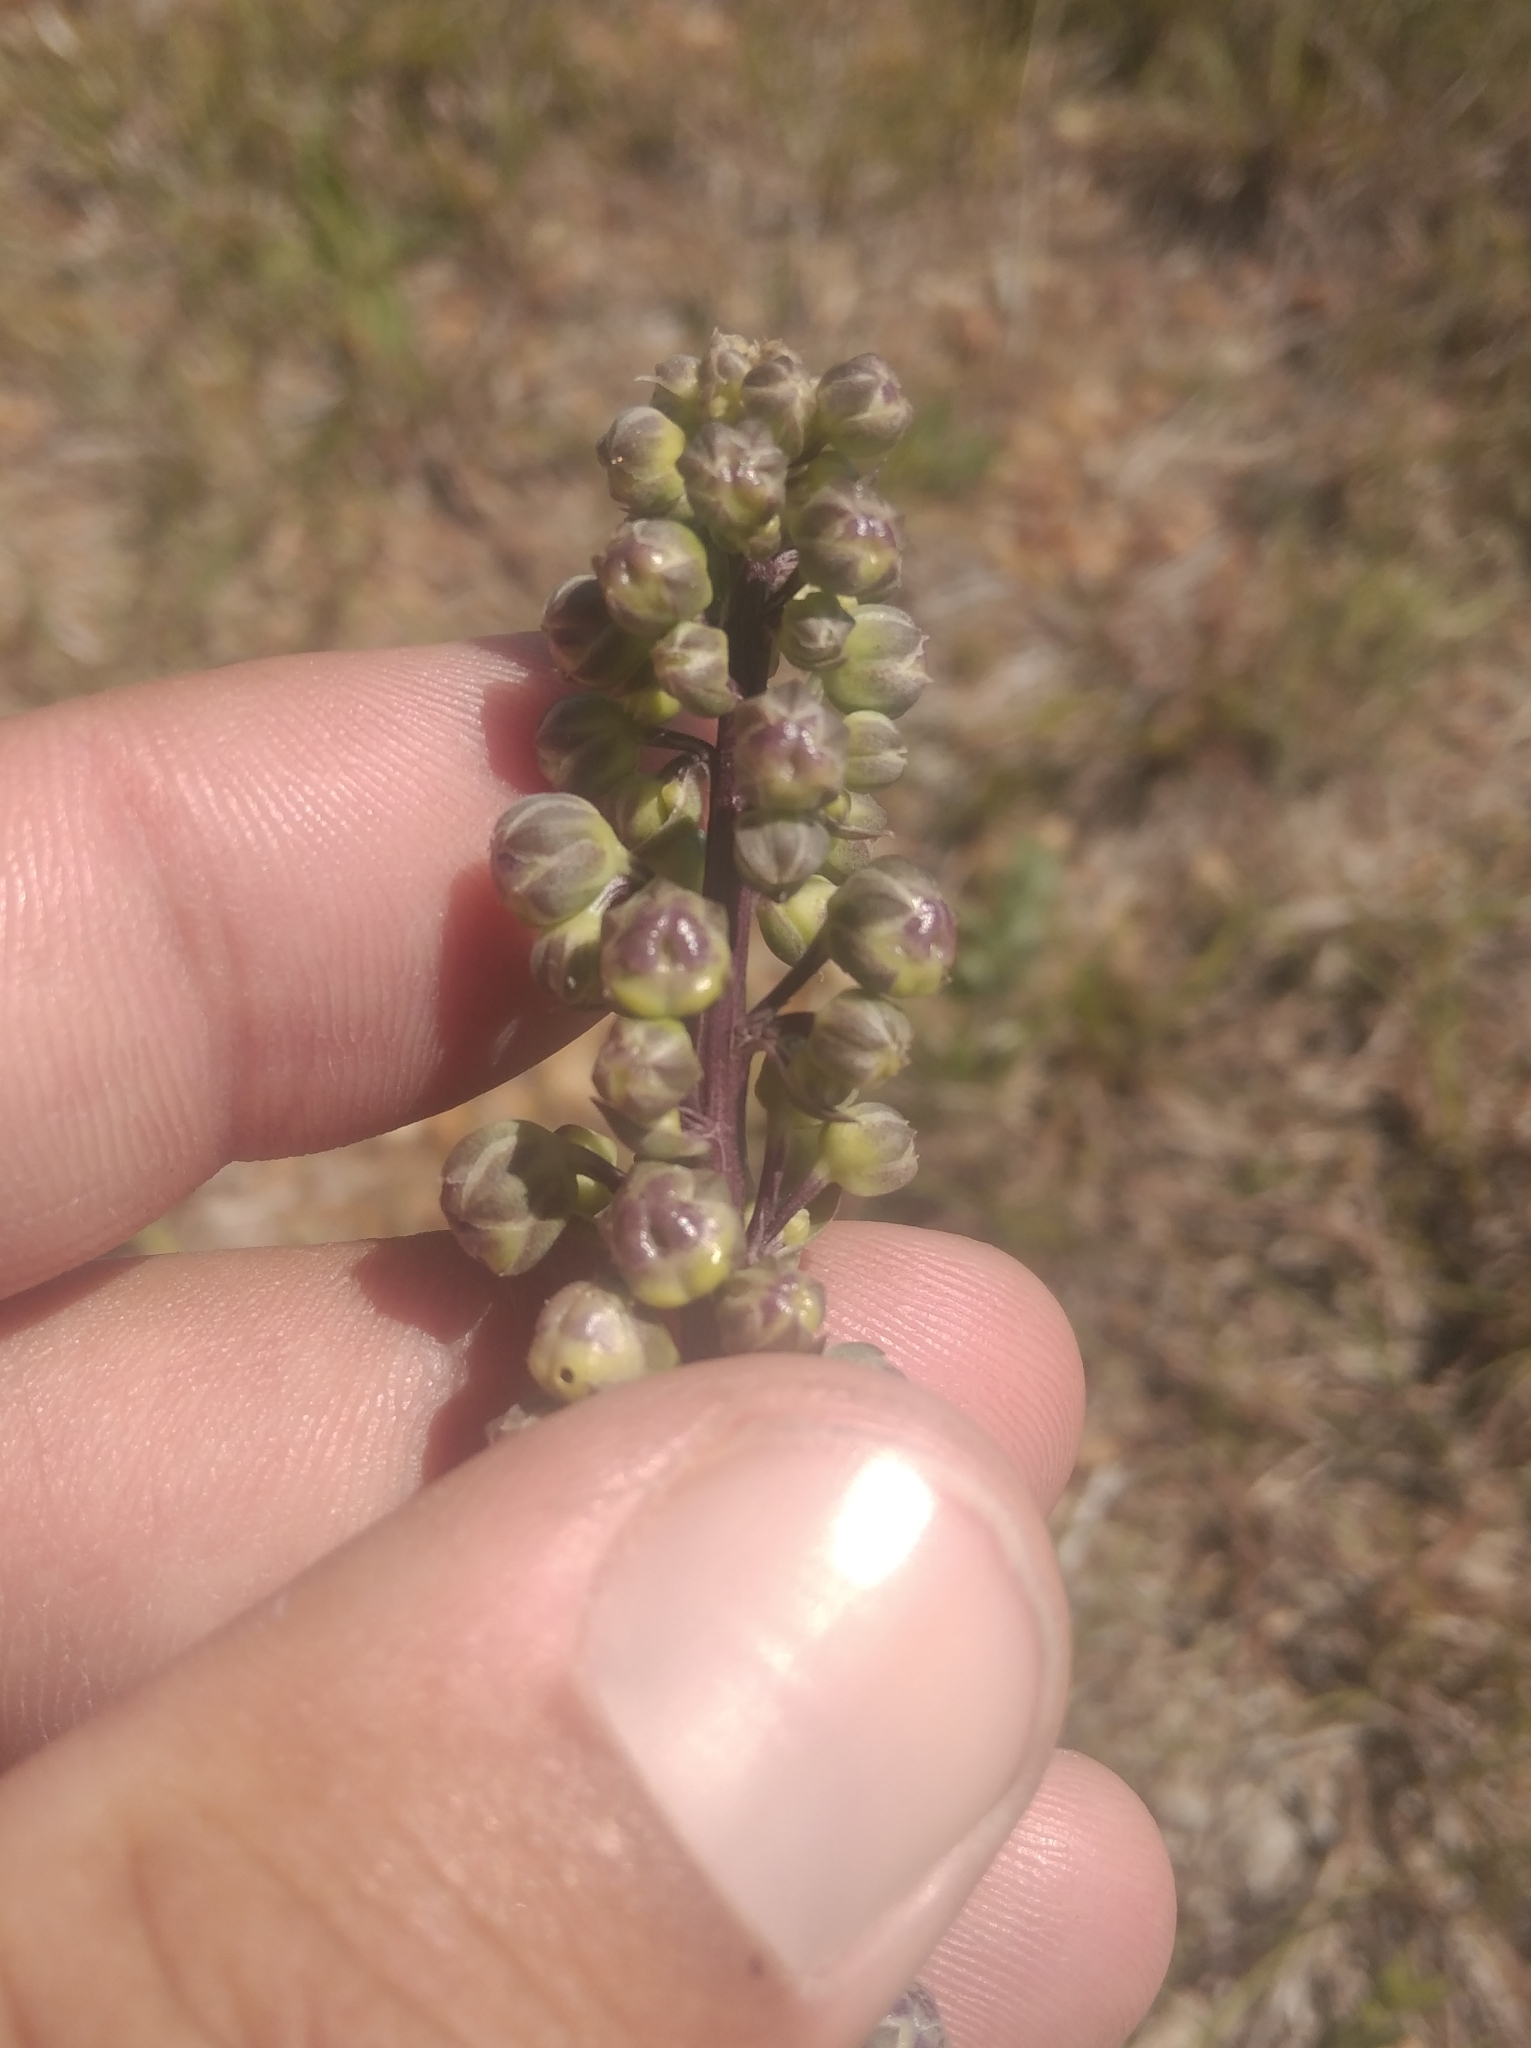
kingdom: Plantae
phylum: Tracheophyta
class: Magnoliopsida
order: Lamiales
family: Plantaginaceae
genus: Angelonia
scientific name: Angelonia integerrima
